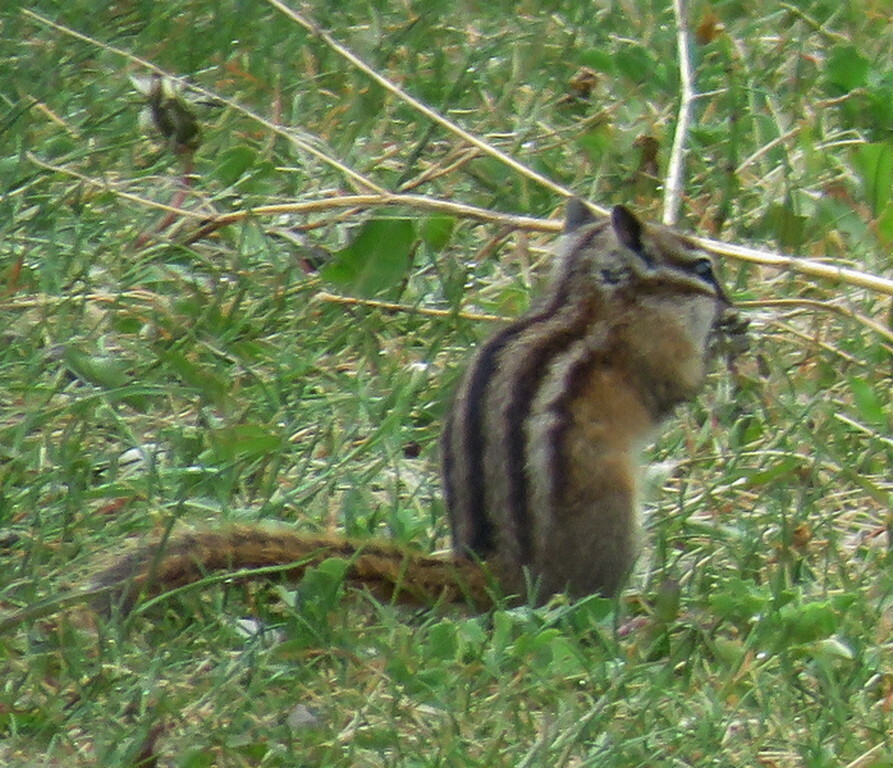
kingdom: Animalia
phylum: Chordata
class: Mammalia
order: Rodentia
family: Sciuridae
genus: Tamias
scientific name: Tamias minimus
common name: Least chipmunk
